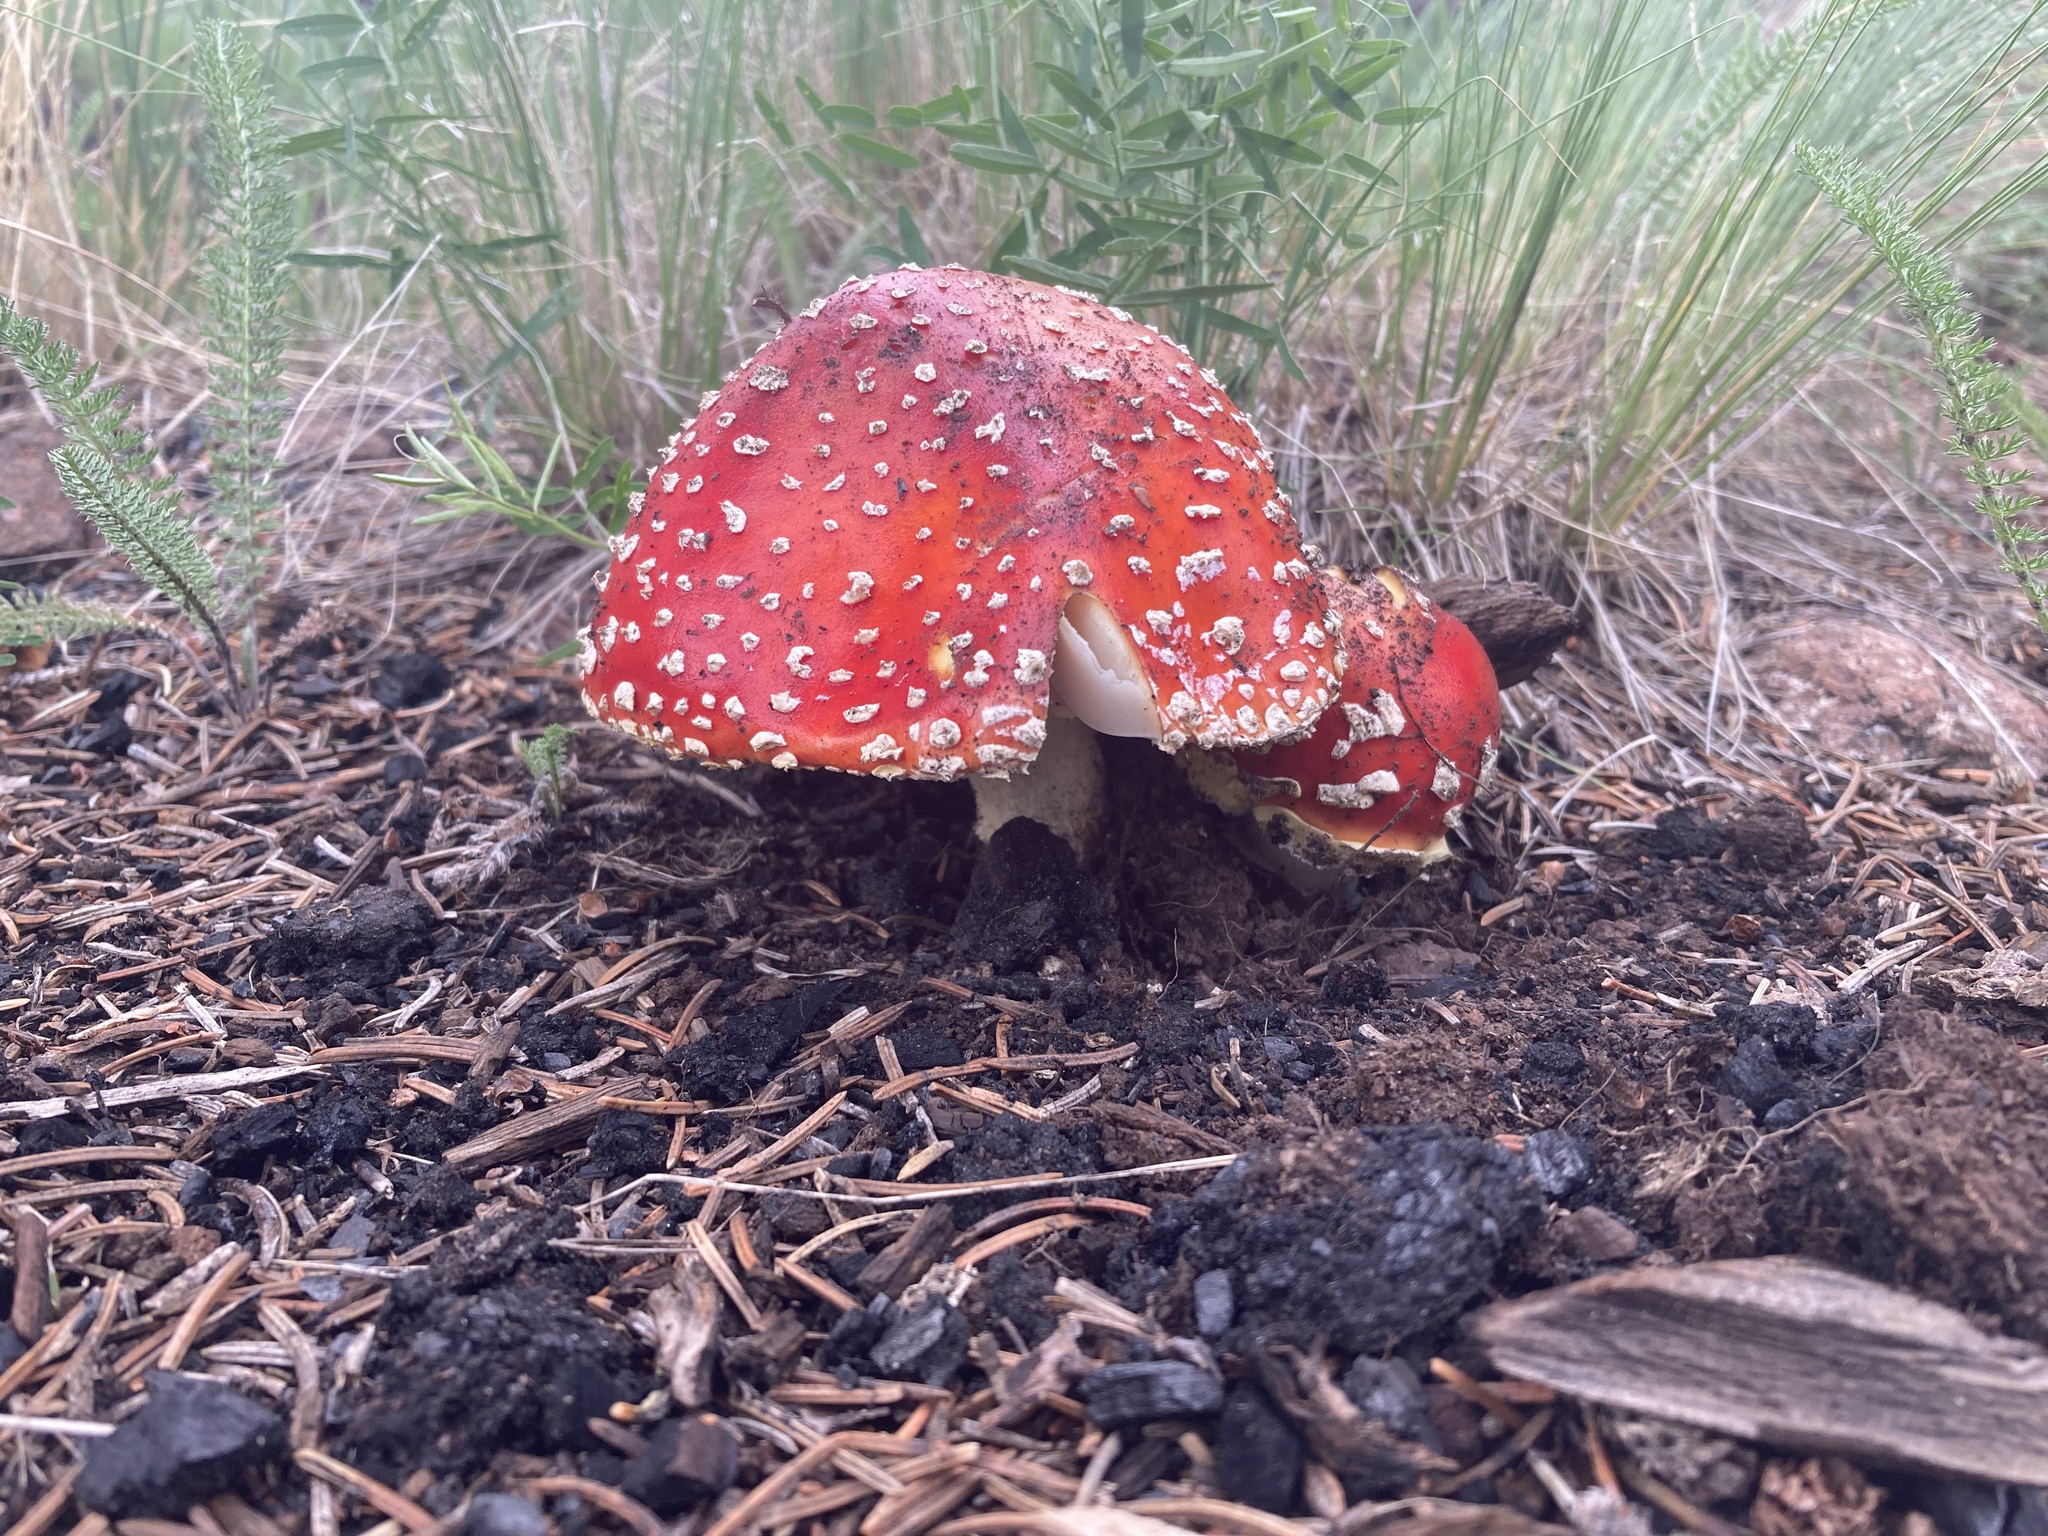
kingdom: Fungi
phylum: Basidiomycota
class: Agaricomycetes
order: Agaricales
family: Amanitaceae
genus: Amanita
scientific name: Amanita muscaria
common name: Fly agaric
